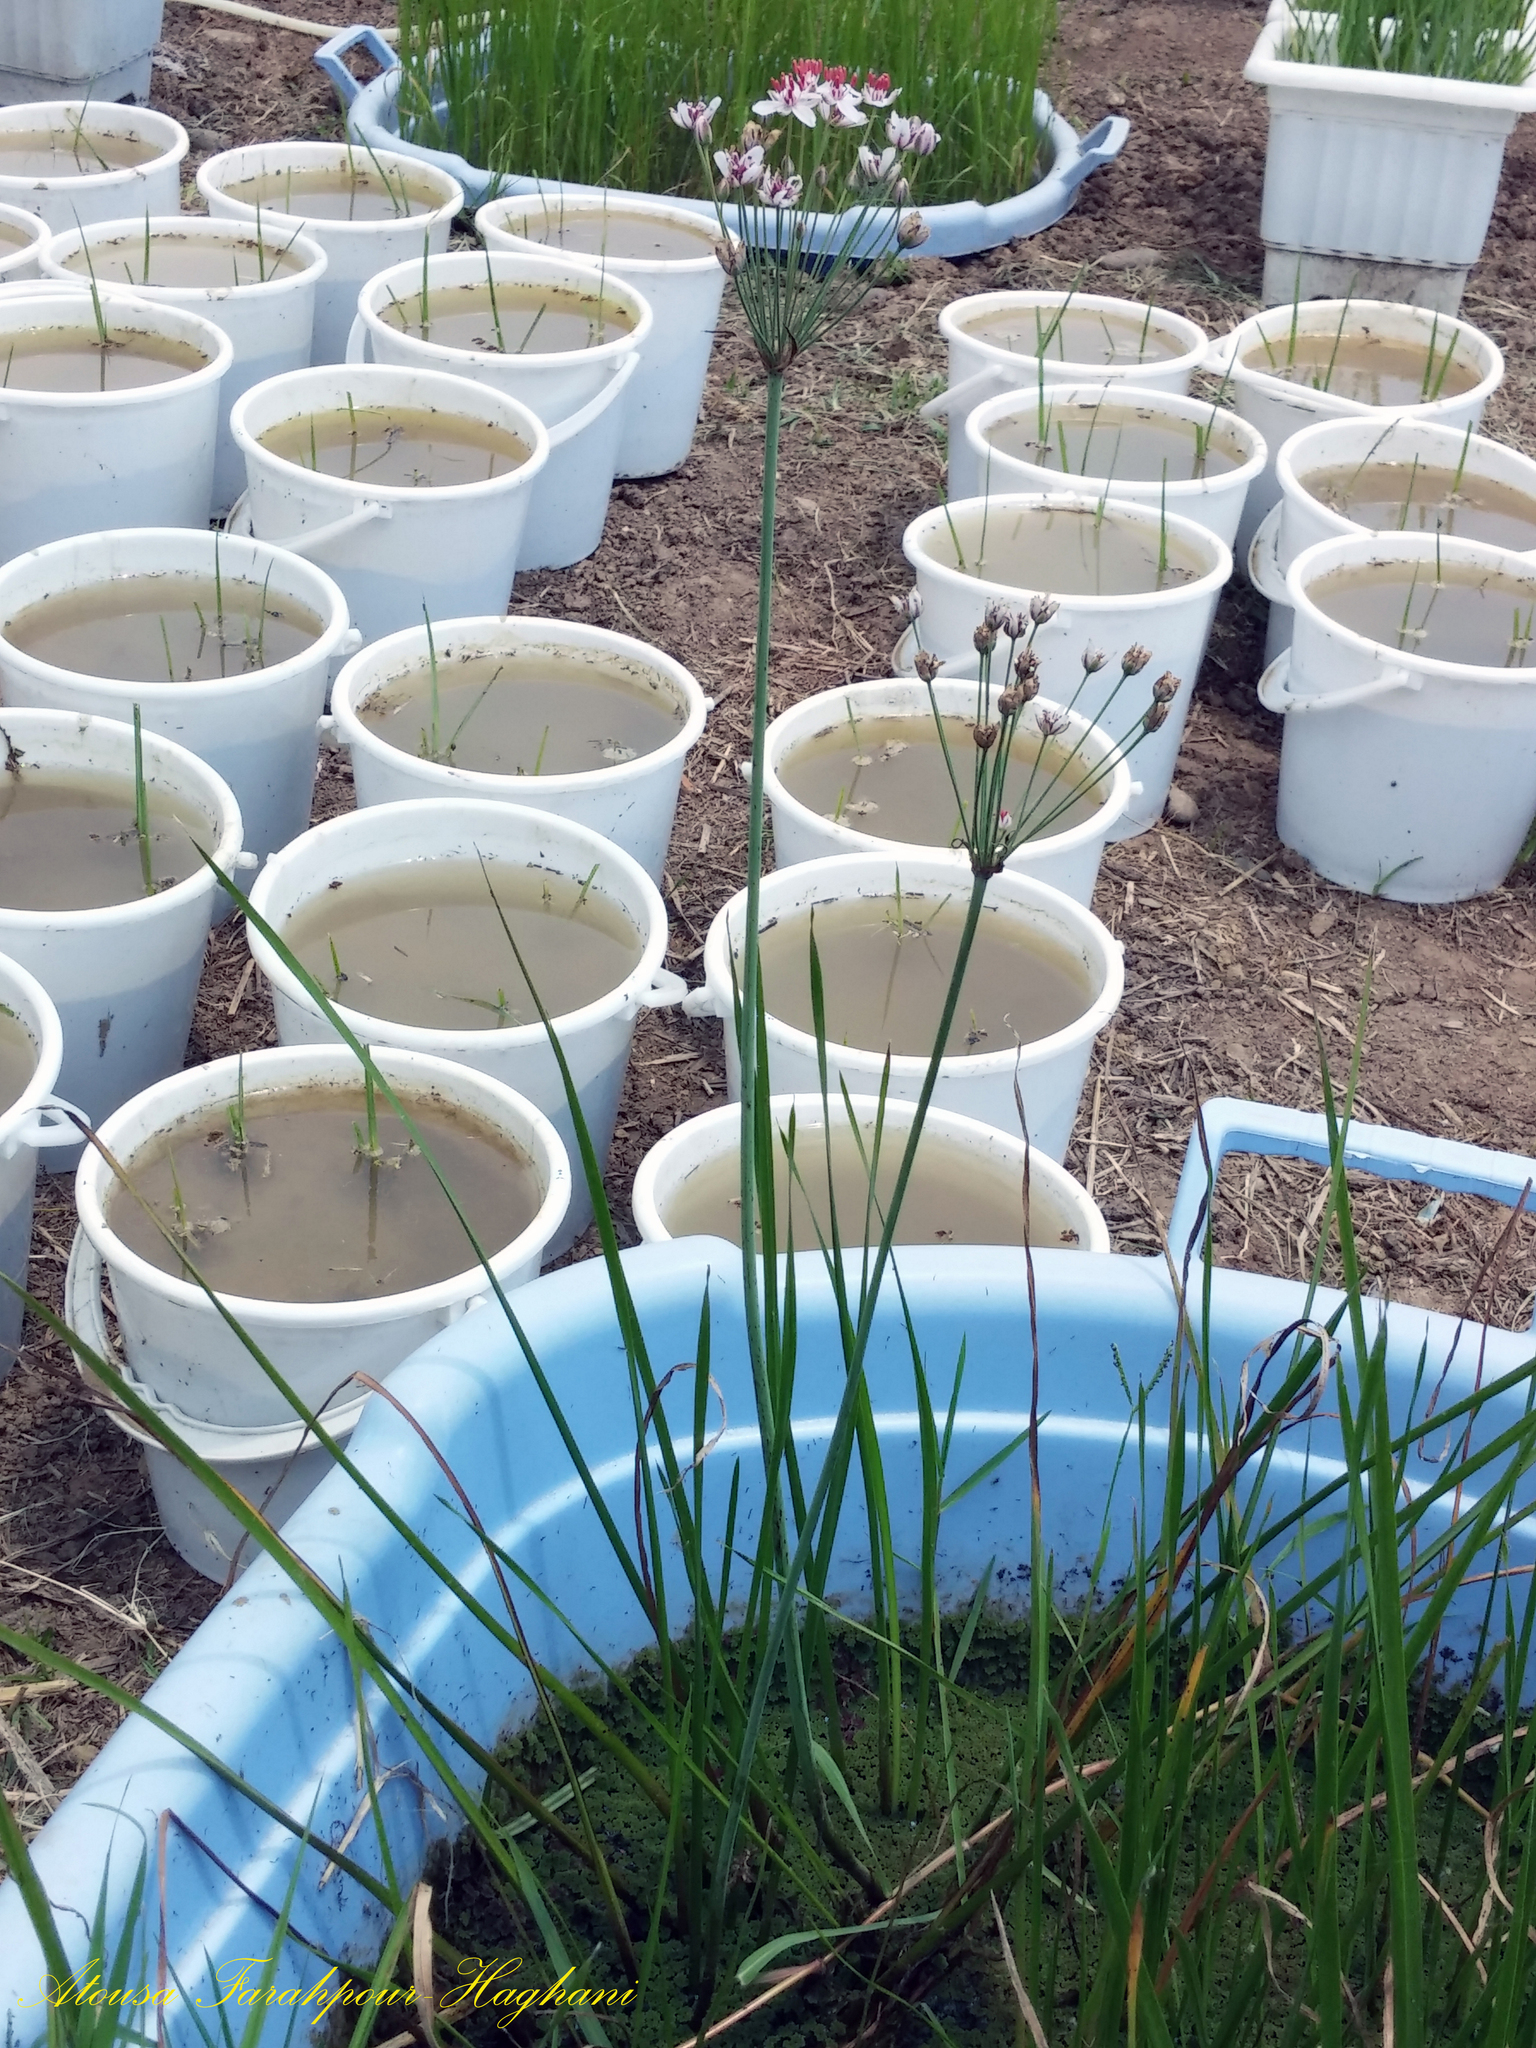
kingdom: Plantae
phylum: Tracheophyta
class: Liliopsida
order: Alismatales
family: Butomaceae
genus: Butomus
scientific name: Butomus umbellatus
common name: Flowering-rush
